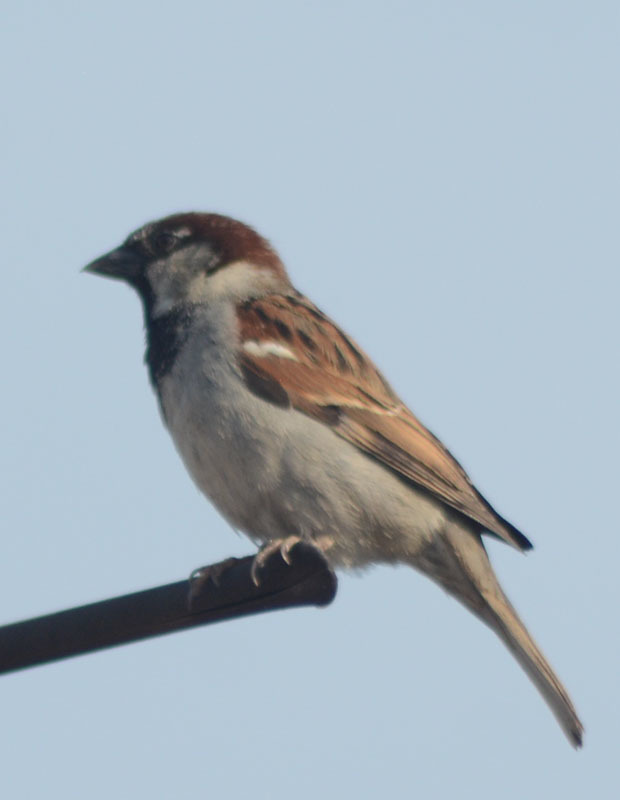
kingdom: Animalia
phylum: Chordata
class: Aves
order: Passeriformes
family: Passeridae
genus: Passer
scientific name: Passer domesticus
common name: House sparrow
